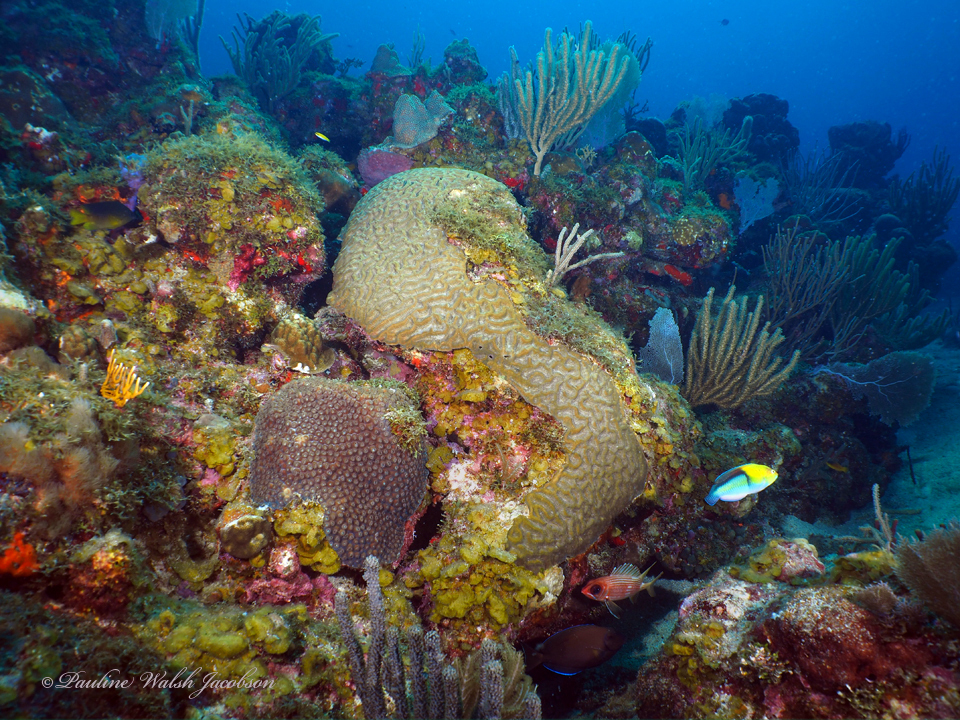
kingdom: Animalia
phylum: Chordata
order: Perciformes
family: Labridae
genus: Halichoeres
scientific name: Halichoeres garnoti
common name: Yellowhead wrasse
